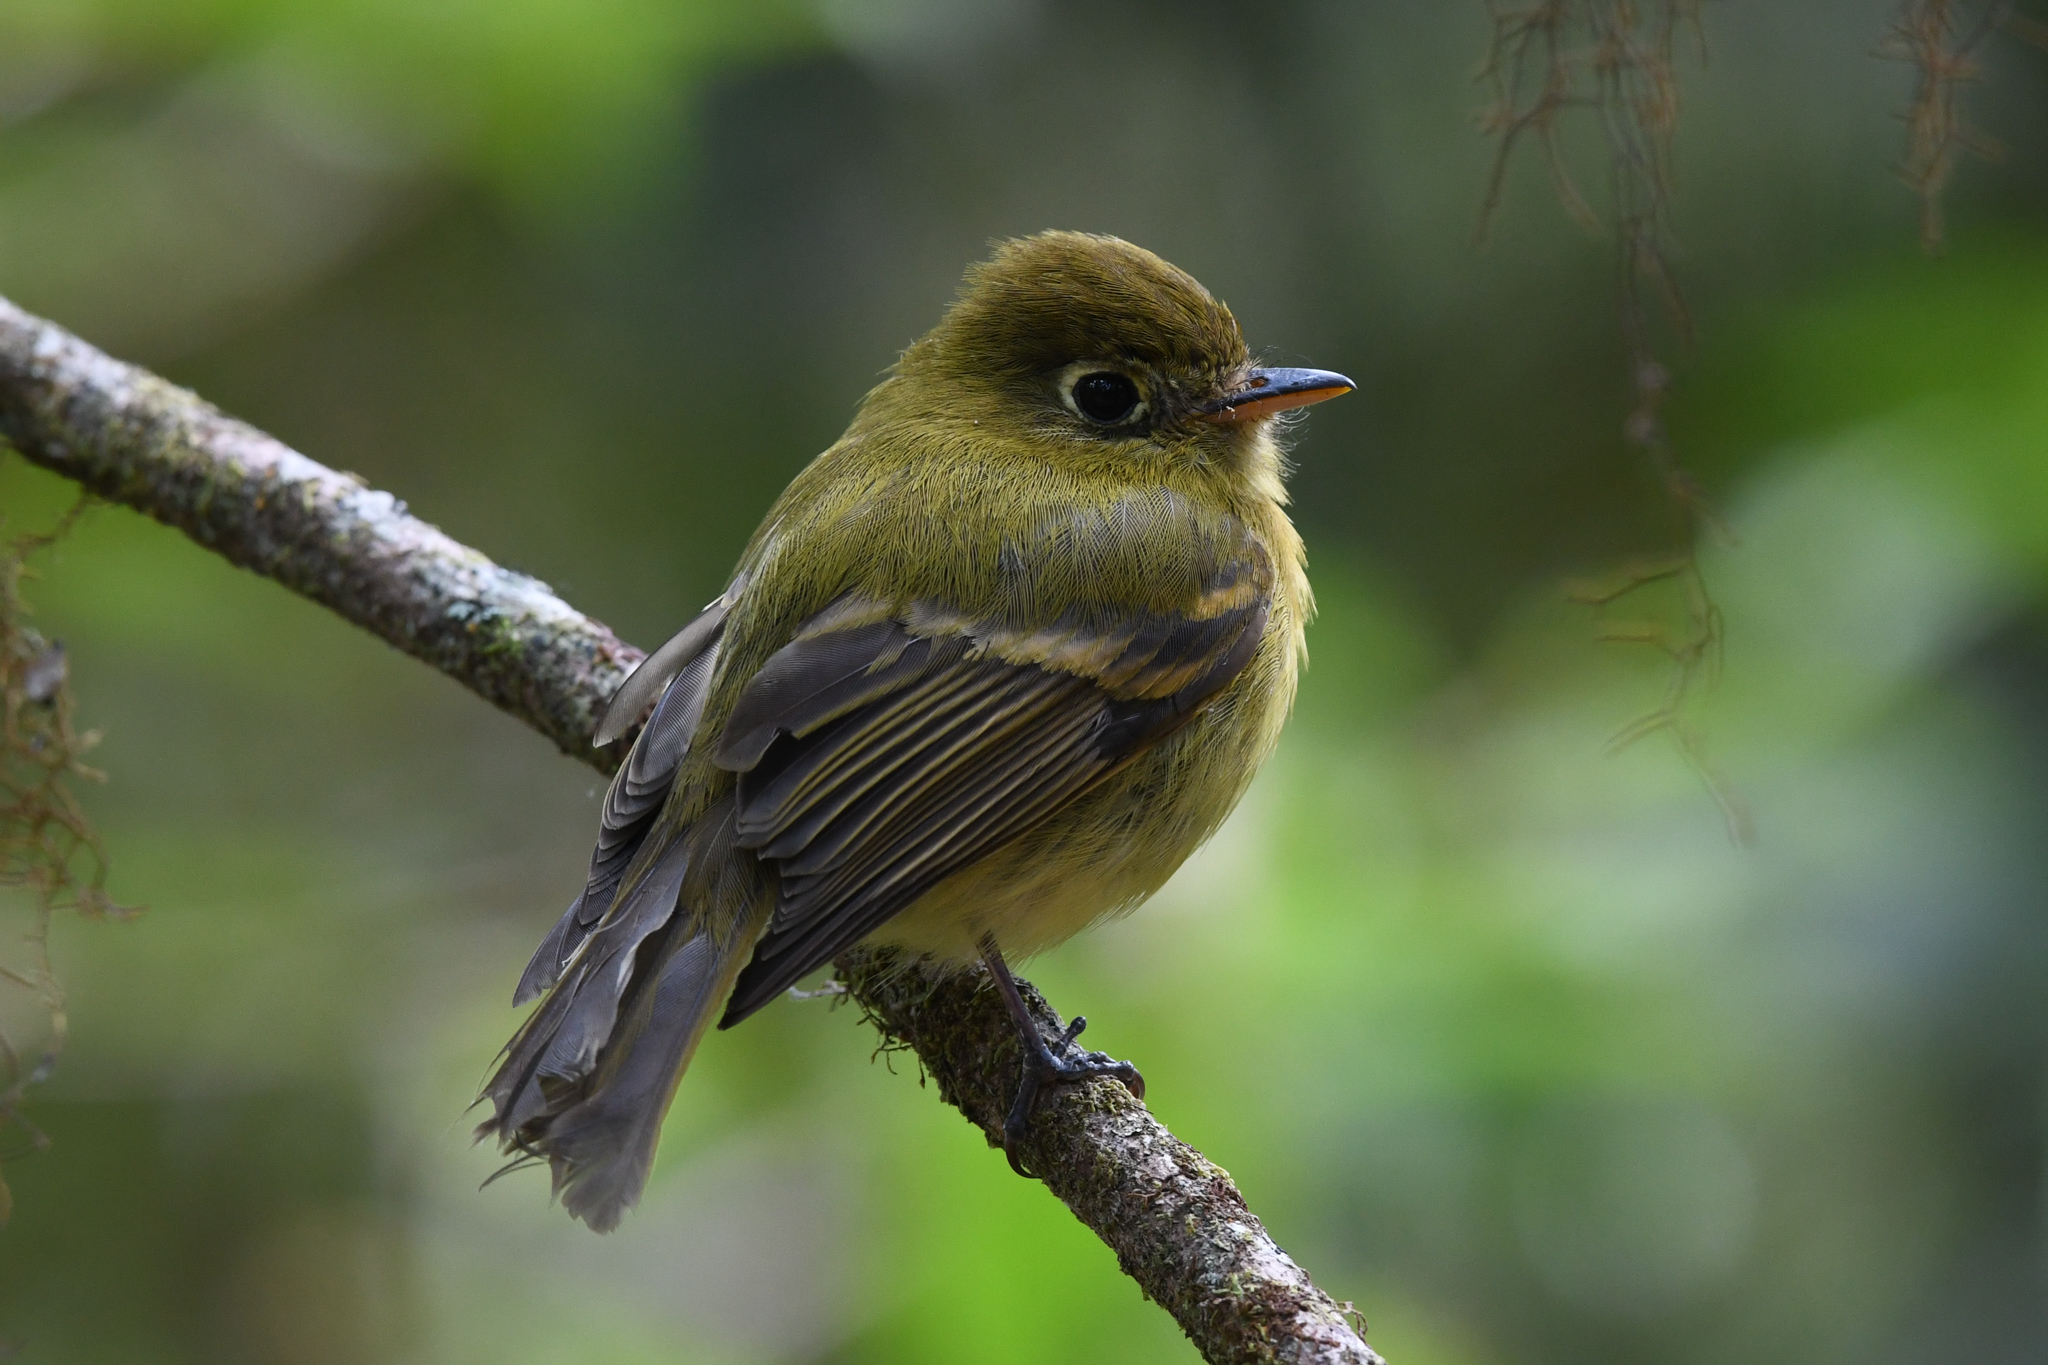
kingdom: Animalia
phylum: Chordata
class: Aves
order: Passeriformes
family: Tyrannidae
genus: Empidonax
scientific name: Empidonax flavescens
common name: Yellowish flycatcher
